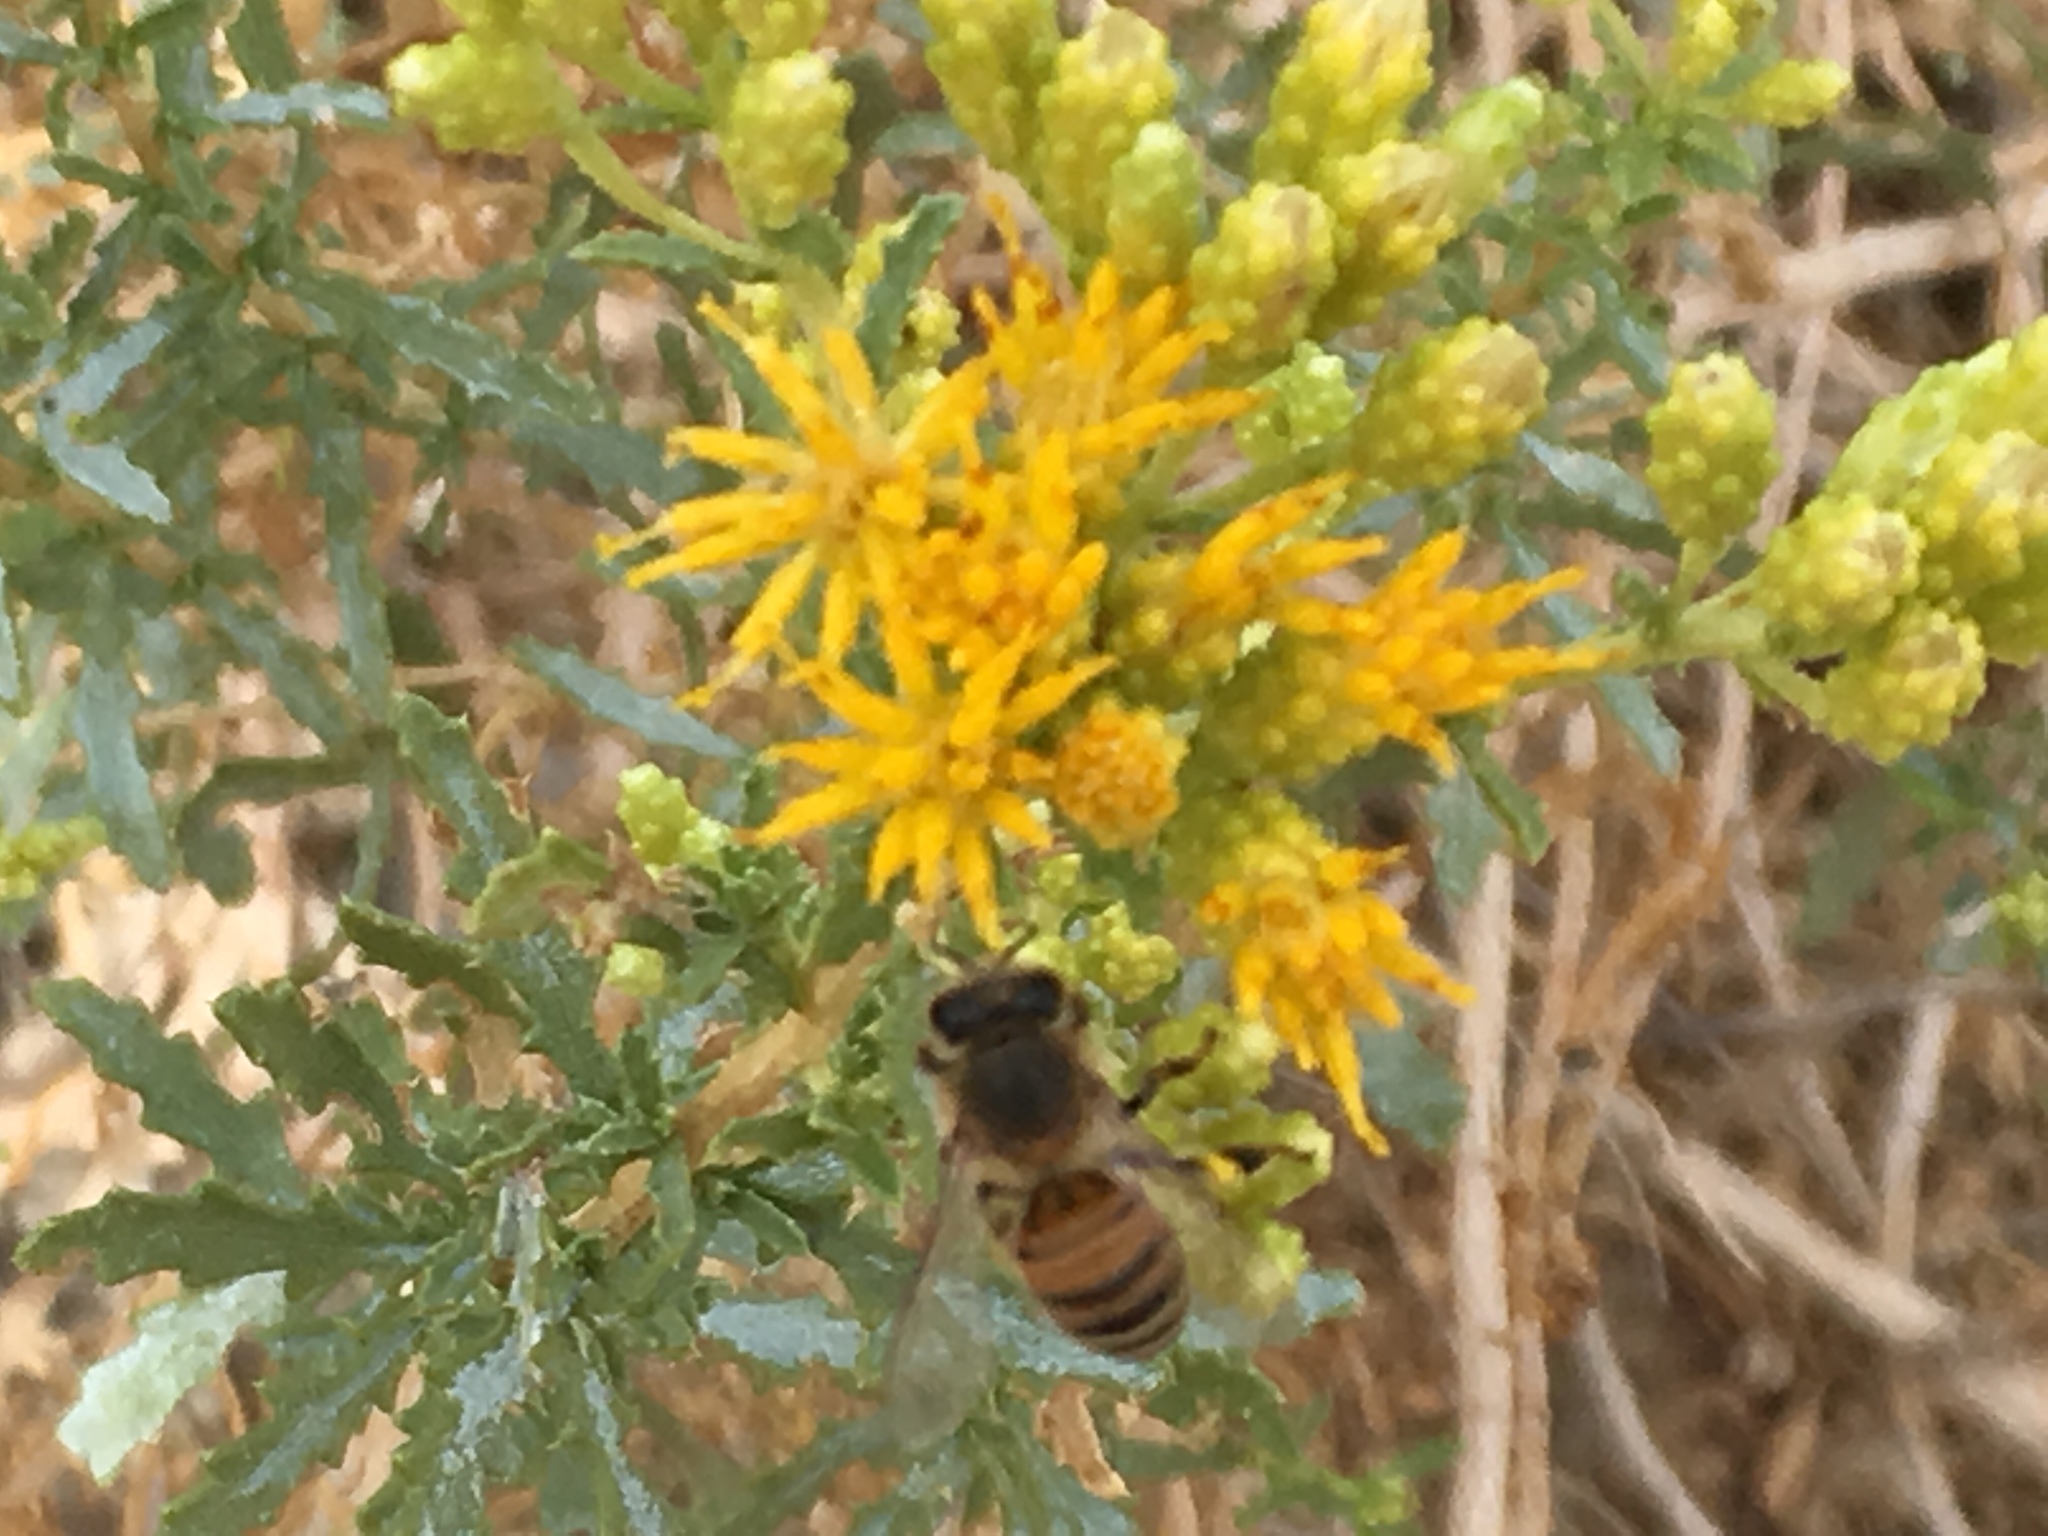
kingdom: Animalia
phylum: Arthropoda
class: Insecta
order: Hymenoptera
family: Apidae
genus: Apis
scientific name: Apis mellifera
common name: Honey bee
